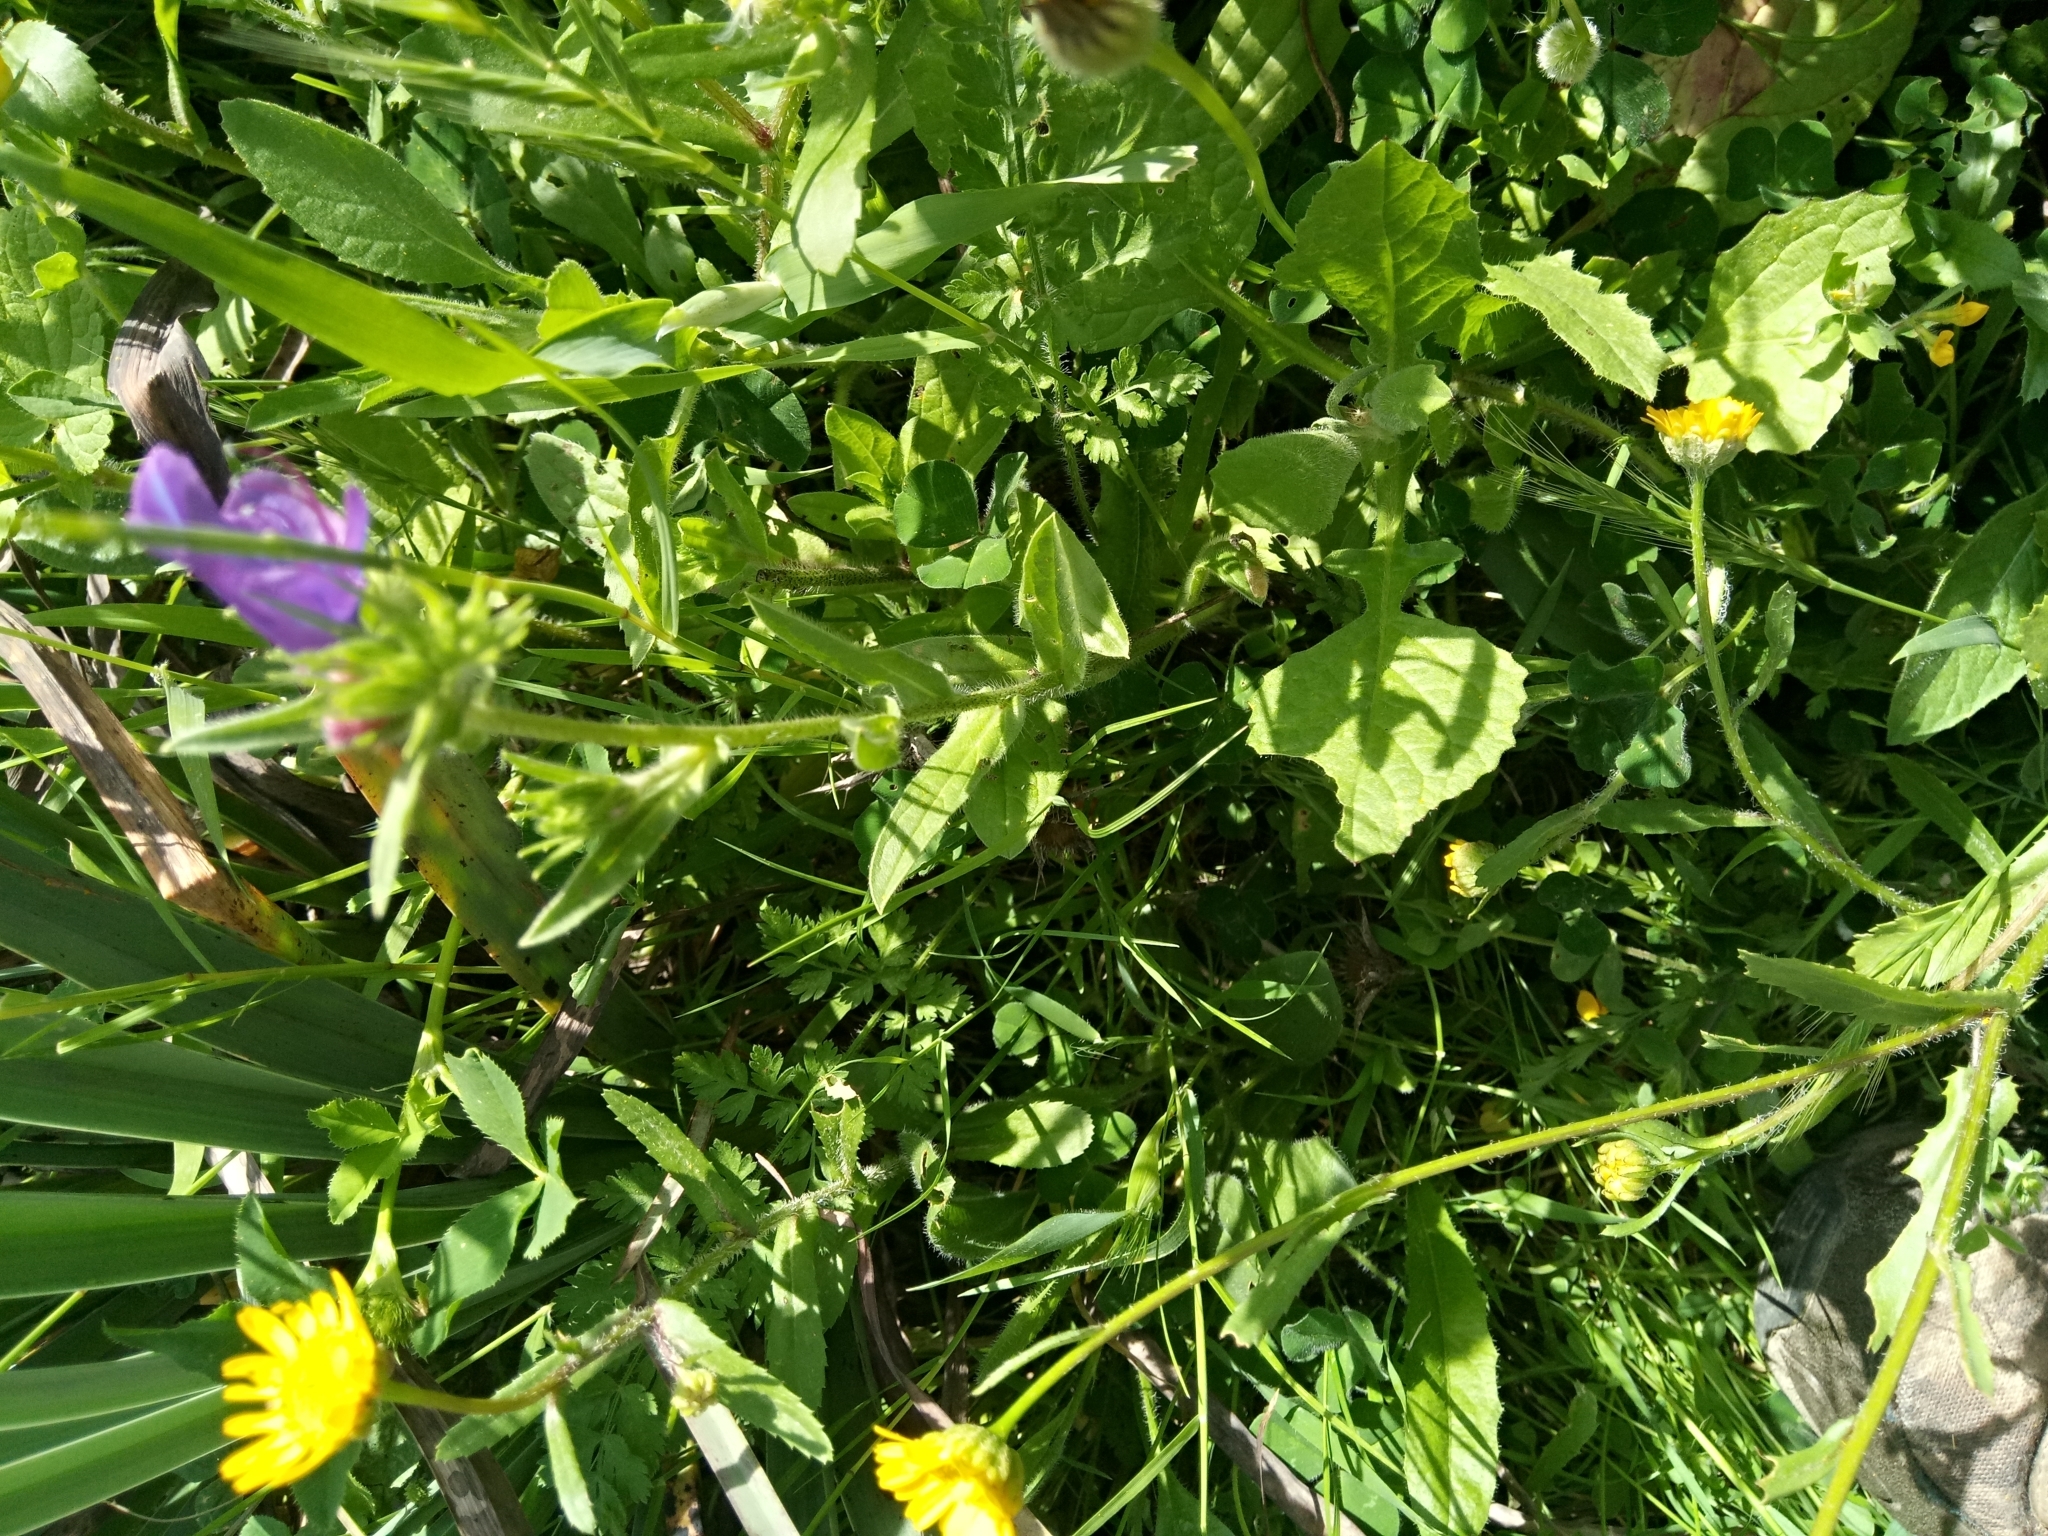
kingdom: Plantae
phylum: Tracheophyta
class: Magnoliopsida
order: Boraginales
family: Boraginaceae
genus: Echium
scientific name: Echium plantagineum
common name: Purple viper's-bugloss
